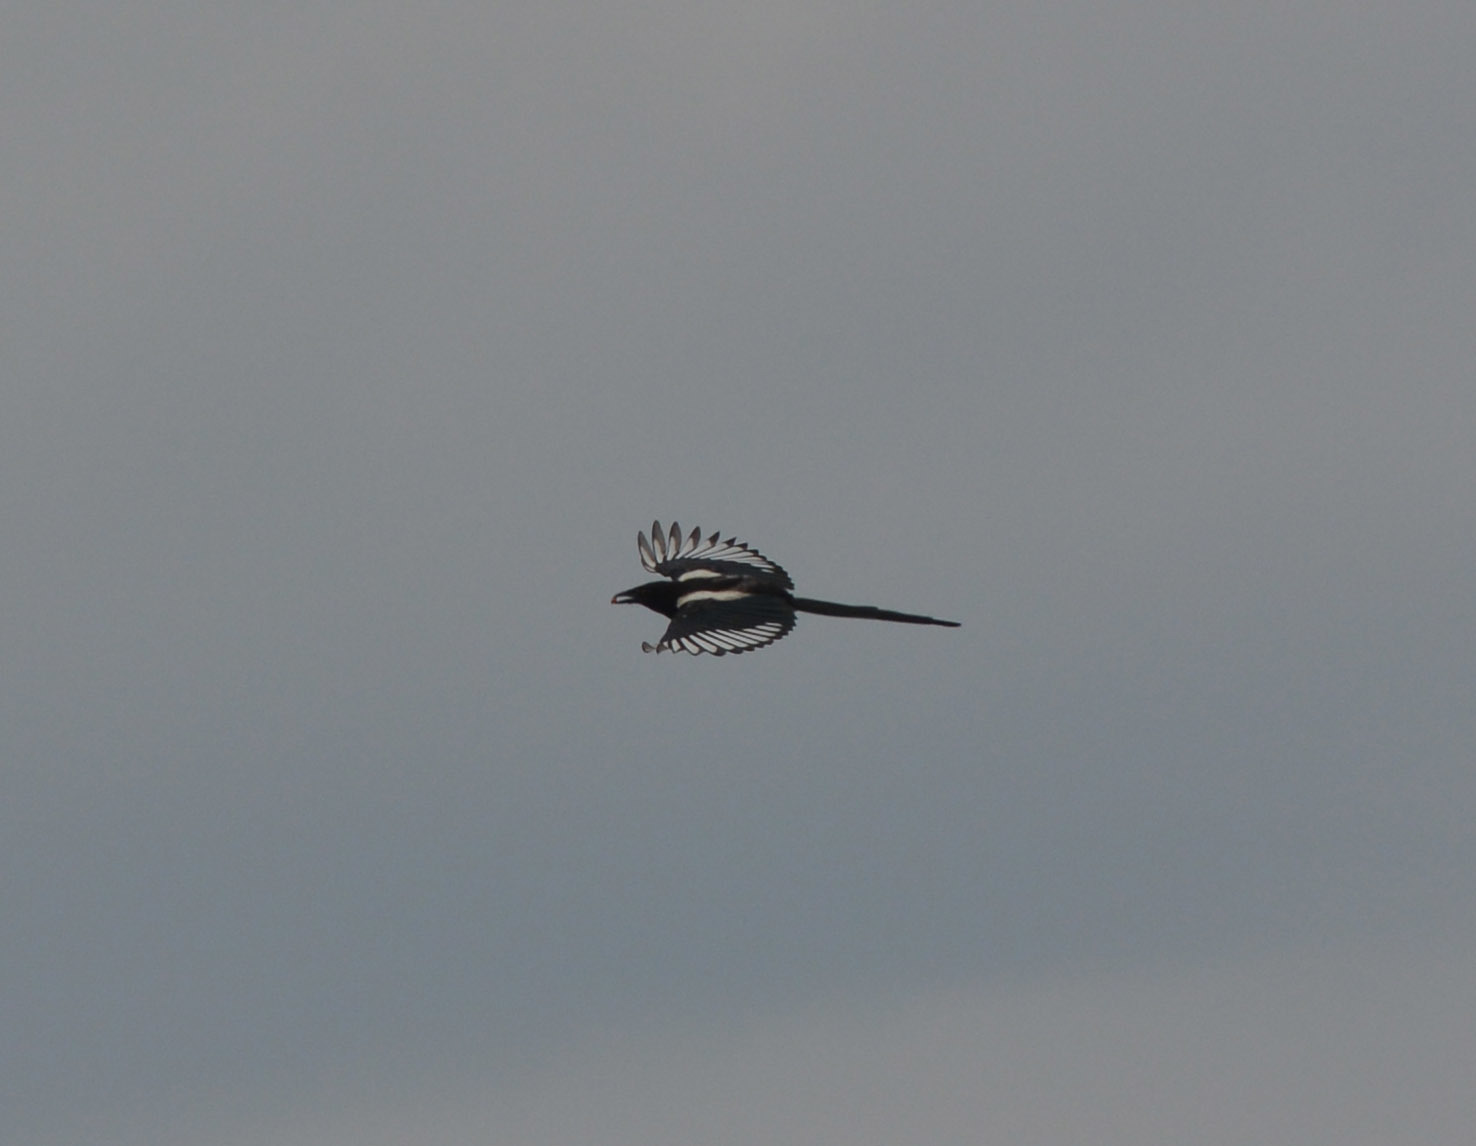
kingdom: Animalia
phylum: Chordata
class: Aves
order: Passeriformes
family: Corvidae
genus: Pica
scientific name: Pica pica
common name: Eurasian magpie
